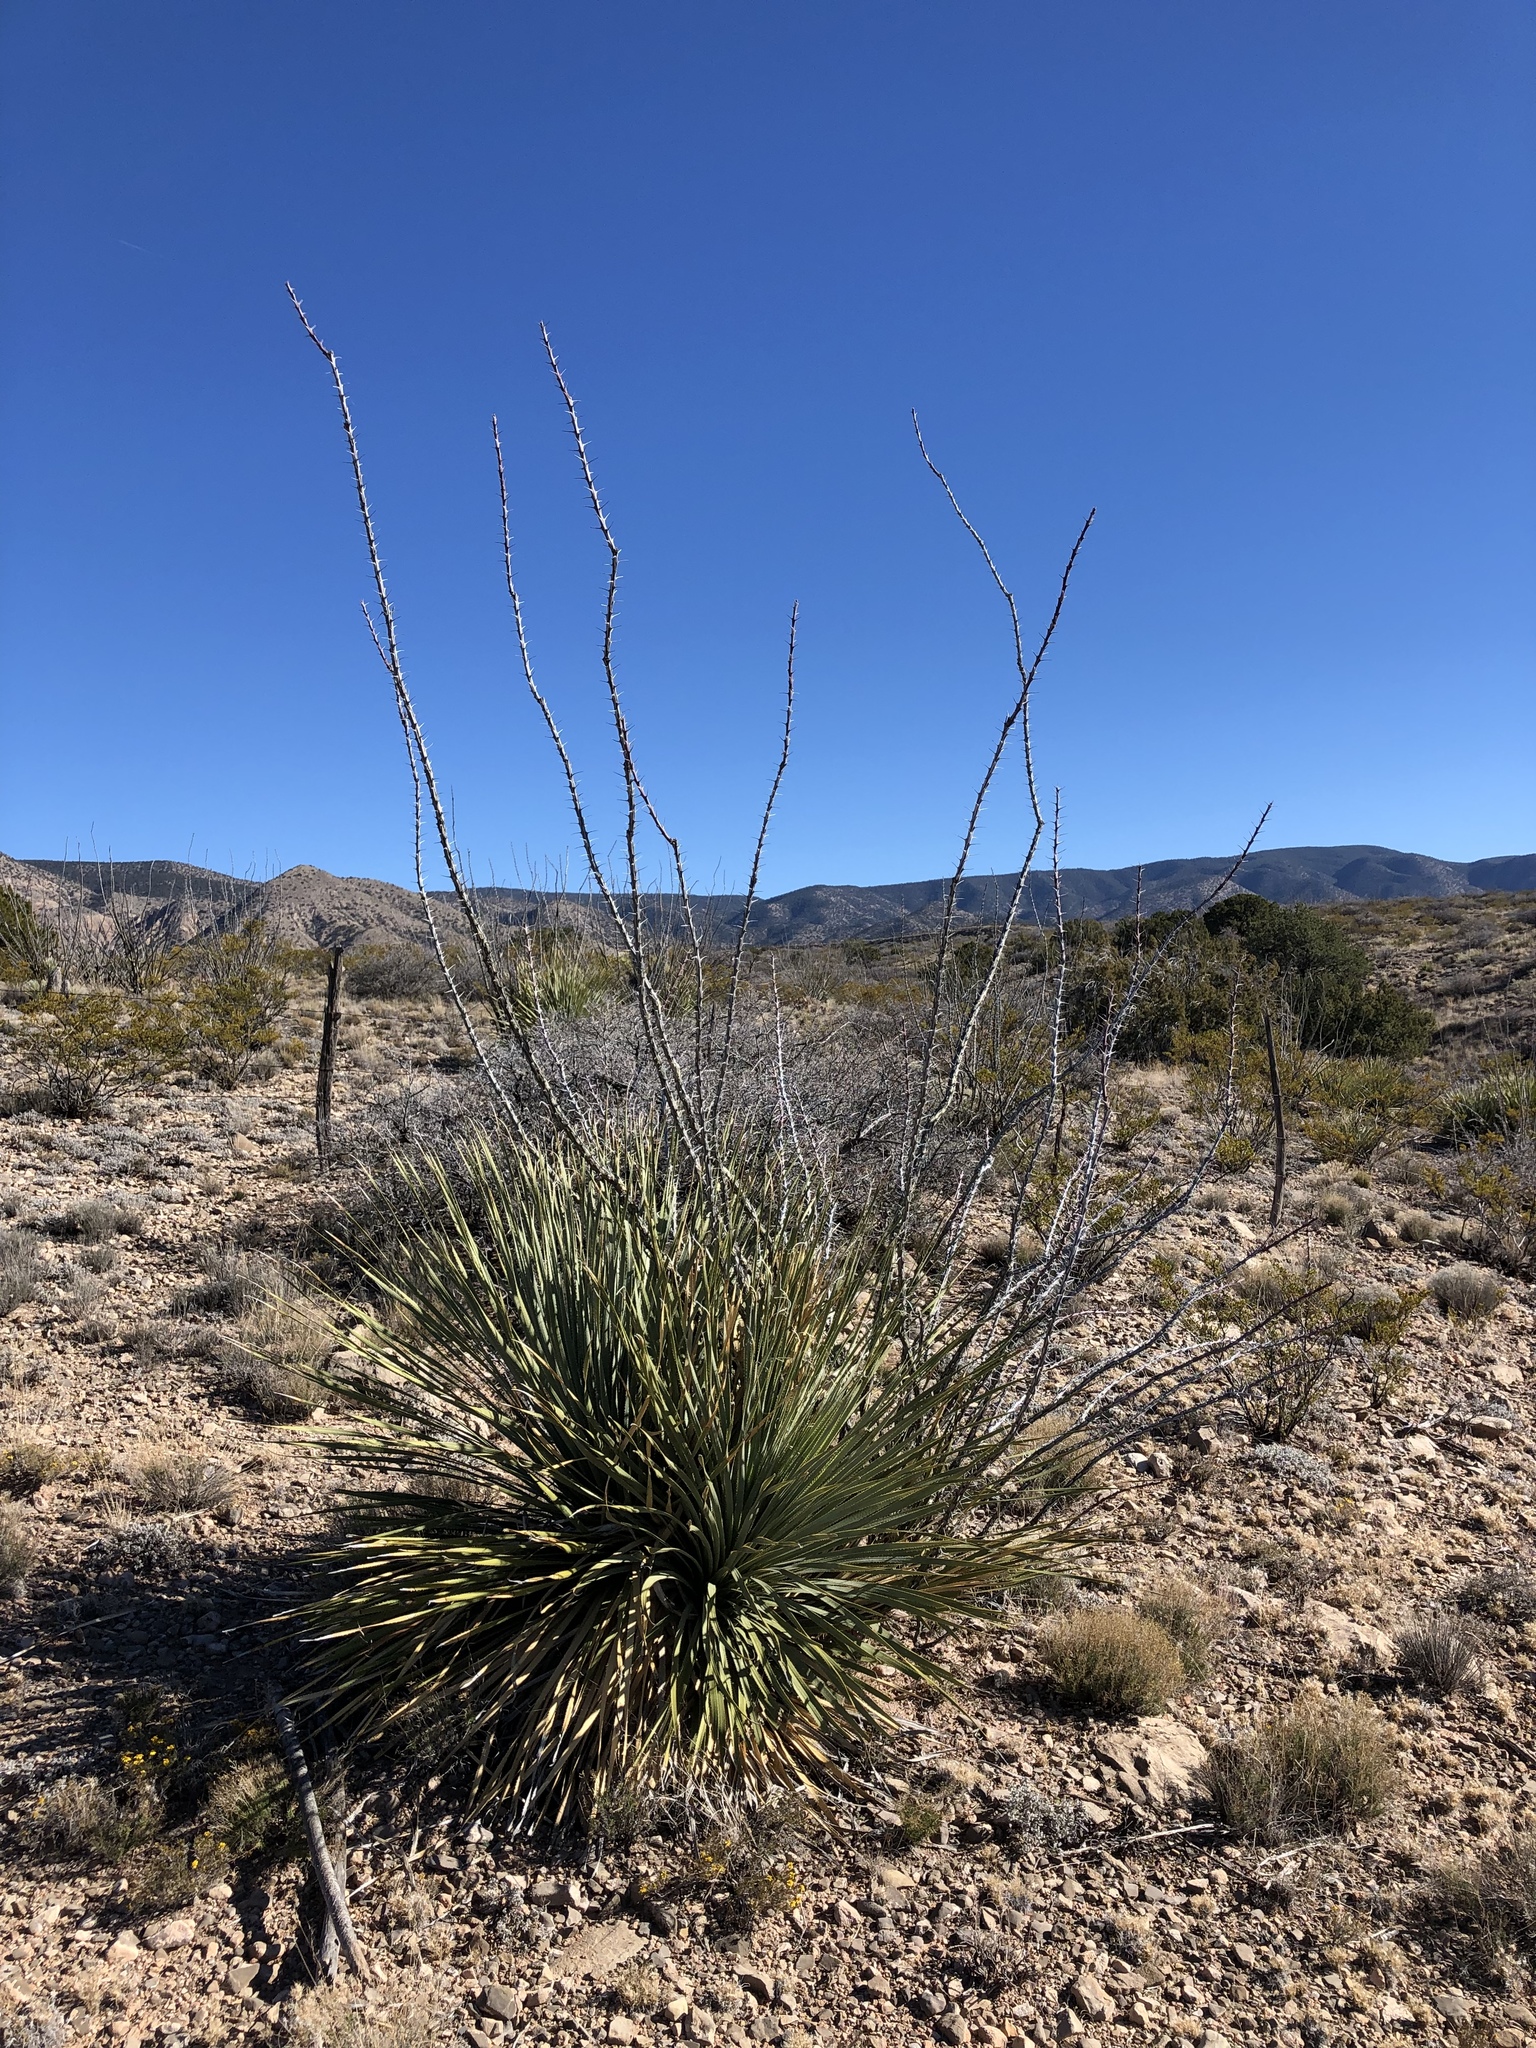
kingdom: Plantae
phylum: Tracheophyta
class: Magnoliopsida
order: Ericales
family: Fouquieriaceae
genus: Fouquieria
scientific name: Fouquieria splendens
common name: Vine-cactus
